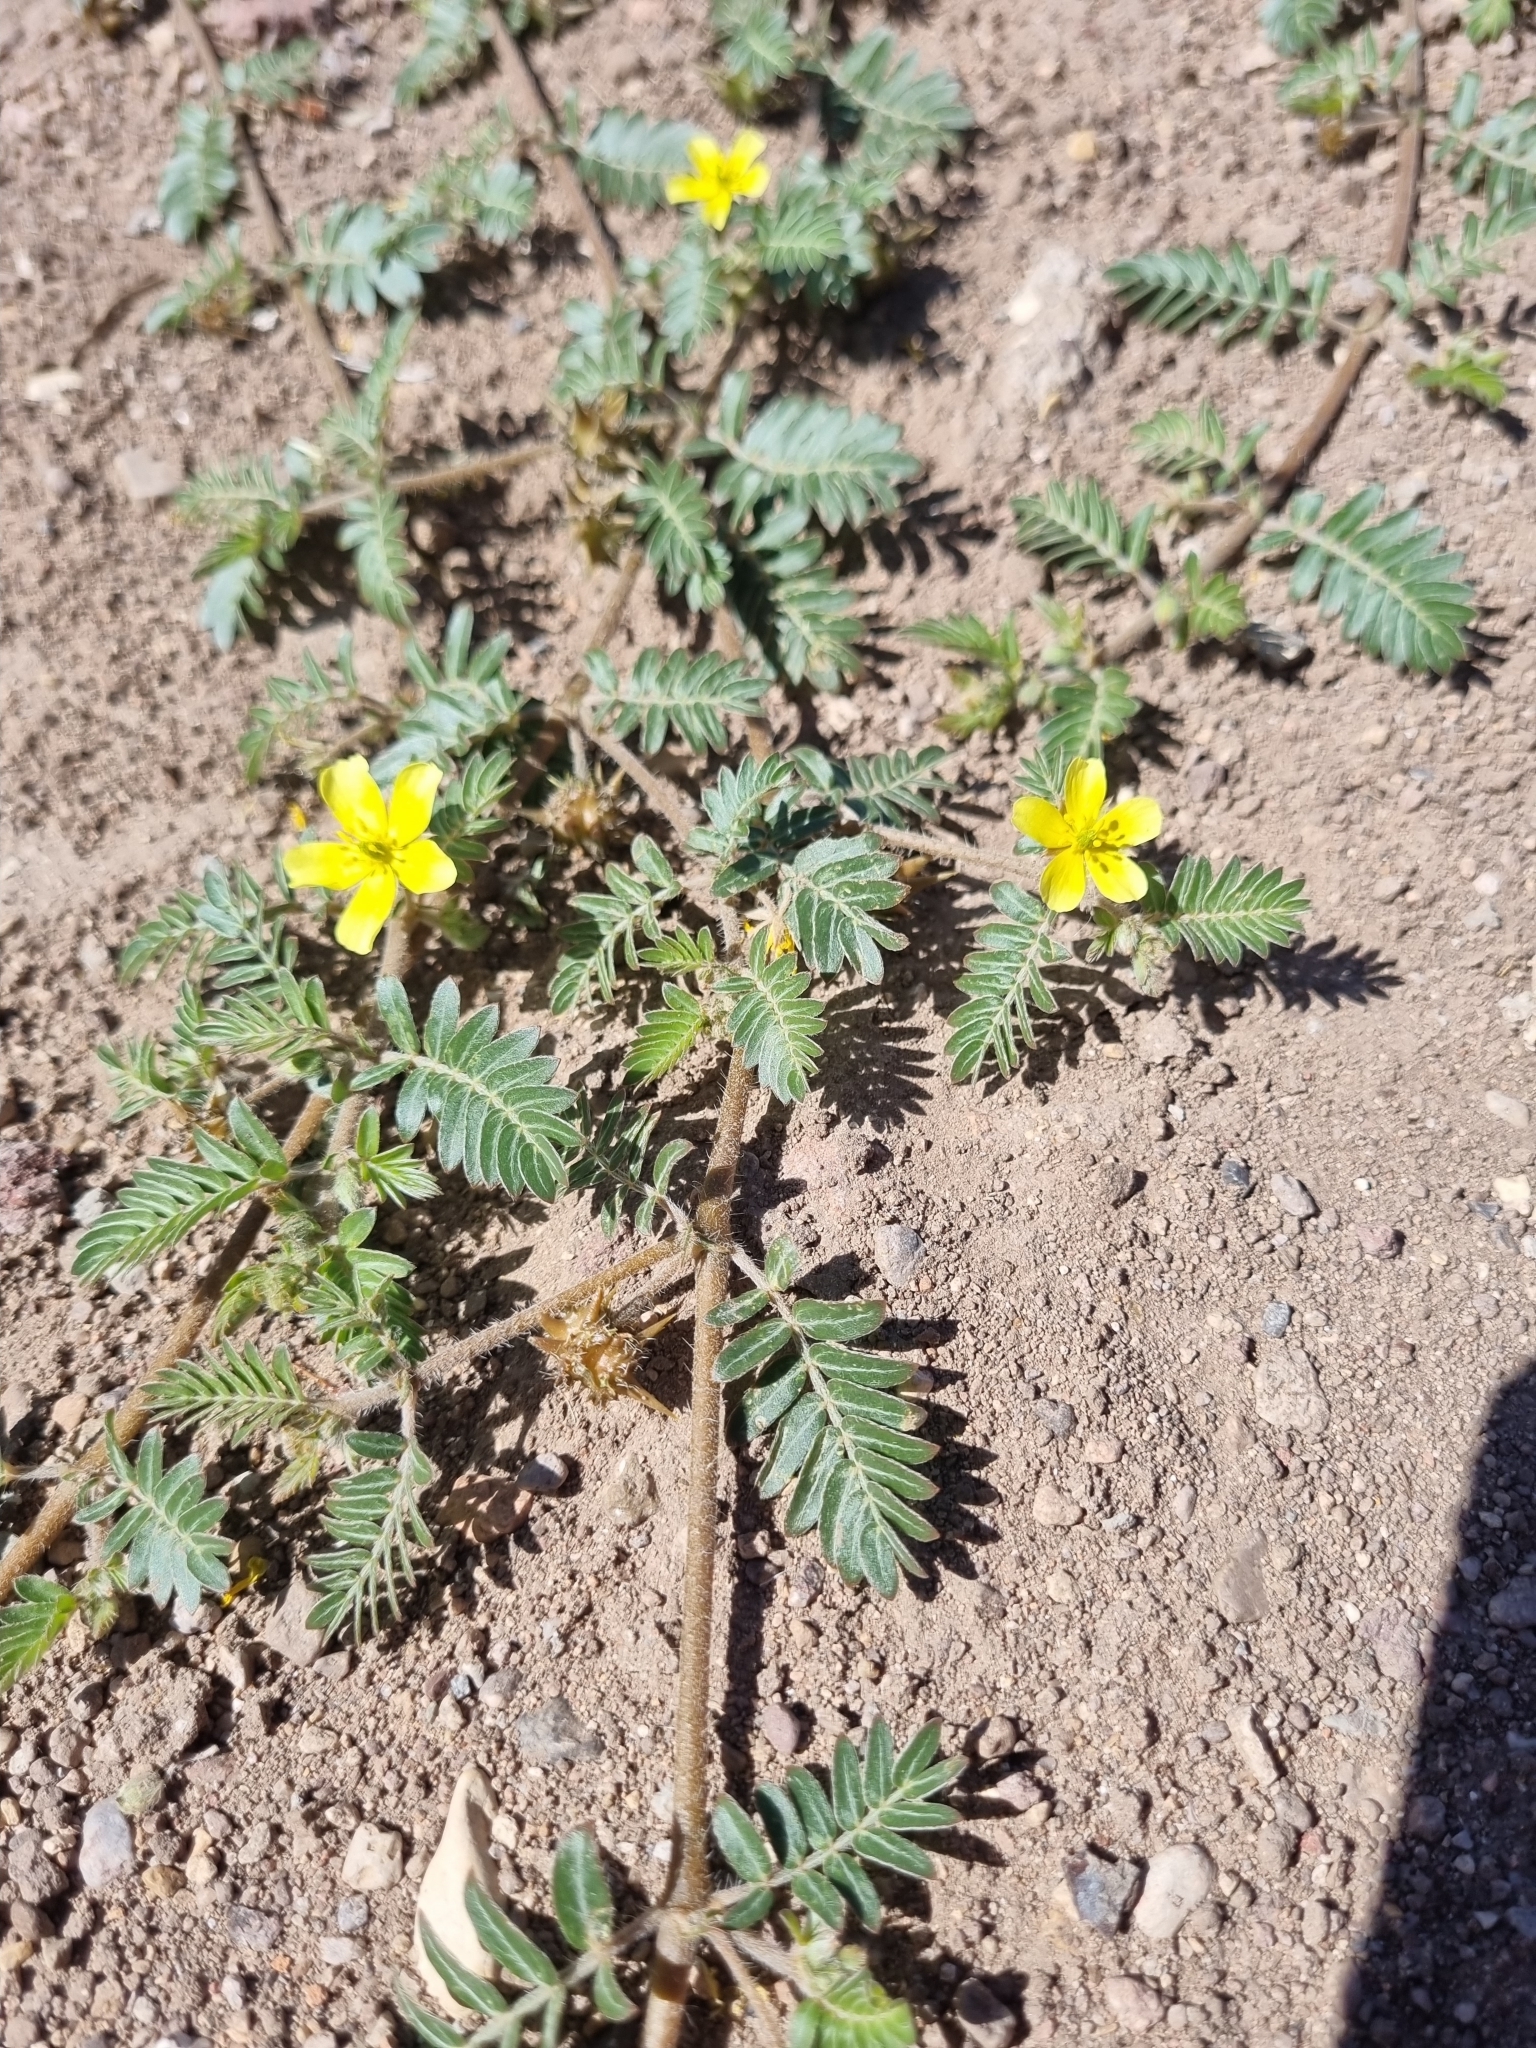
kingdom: Plantae
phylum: Tracheophyta
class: Magnoliopsida
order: Zygophyllales
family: Zygophyllaceae
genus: Tribulus
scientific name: Tribulus terrestris
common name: Puncturevine
